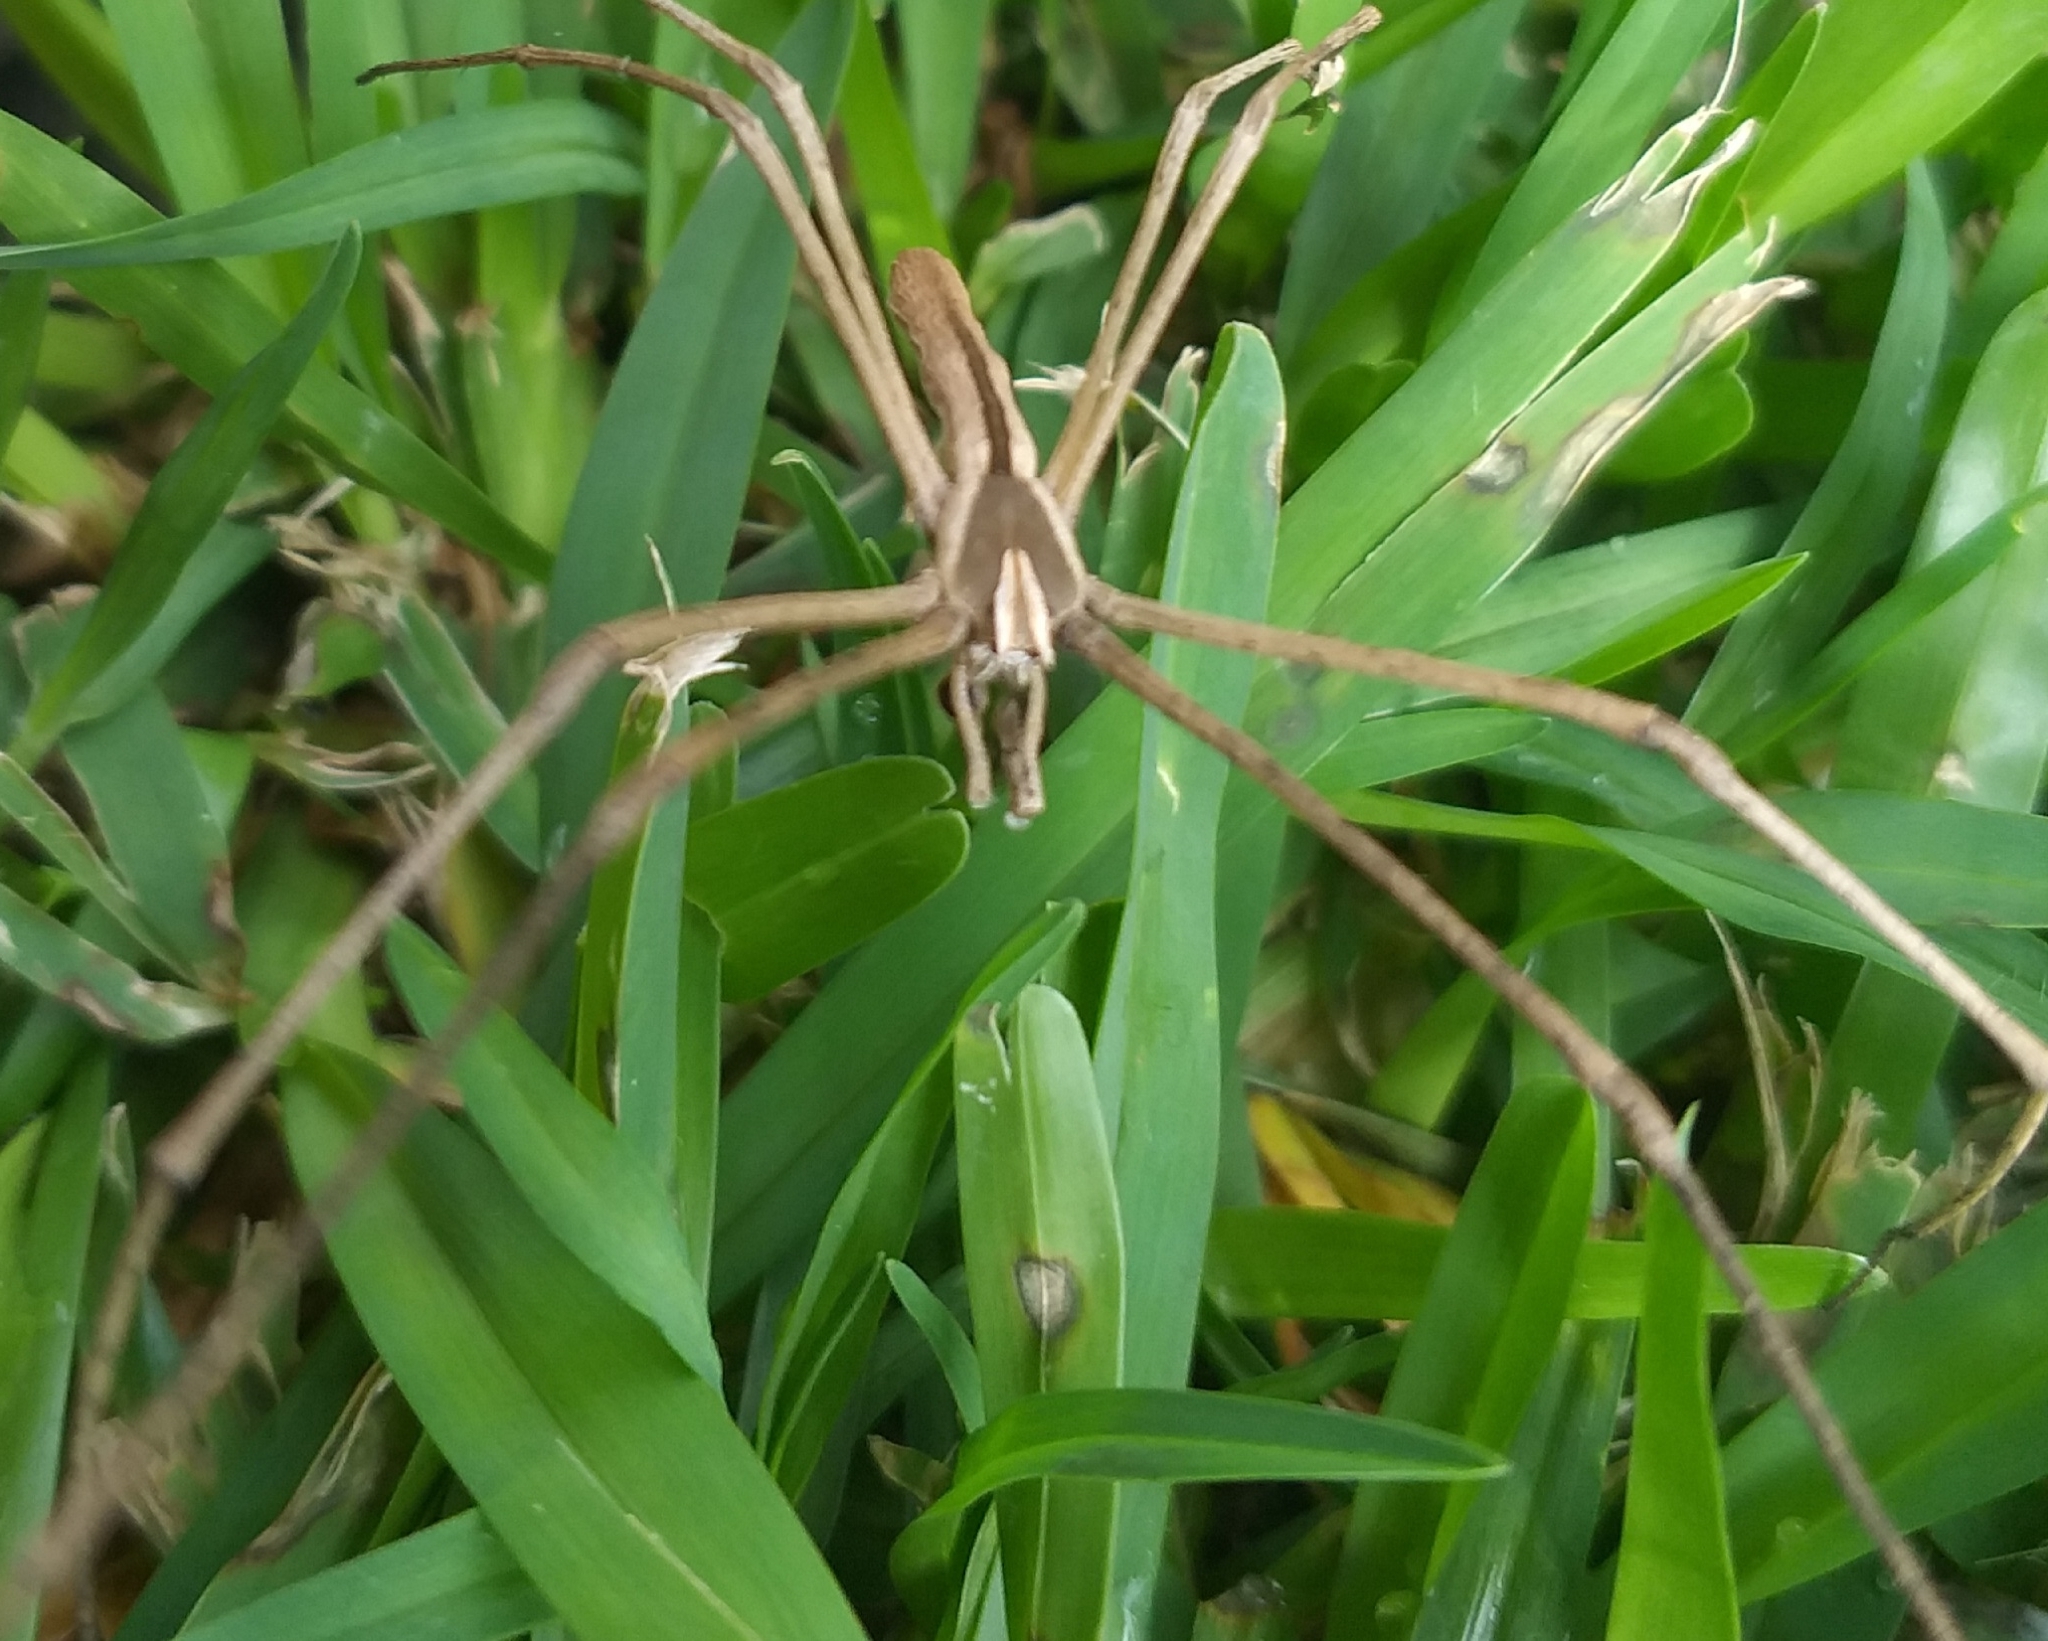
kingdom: Animalia
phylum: Arthropoda
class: Arachnida
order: Araneae
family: Deinopidae
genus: Deinopis
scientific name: Deinopis aurita
